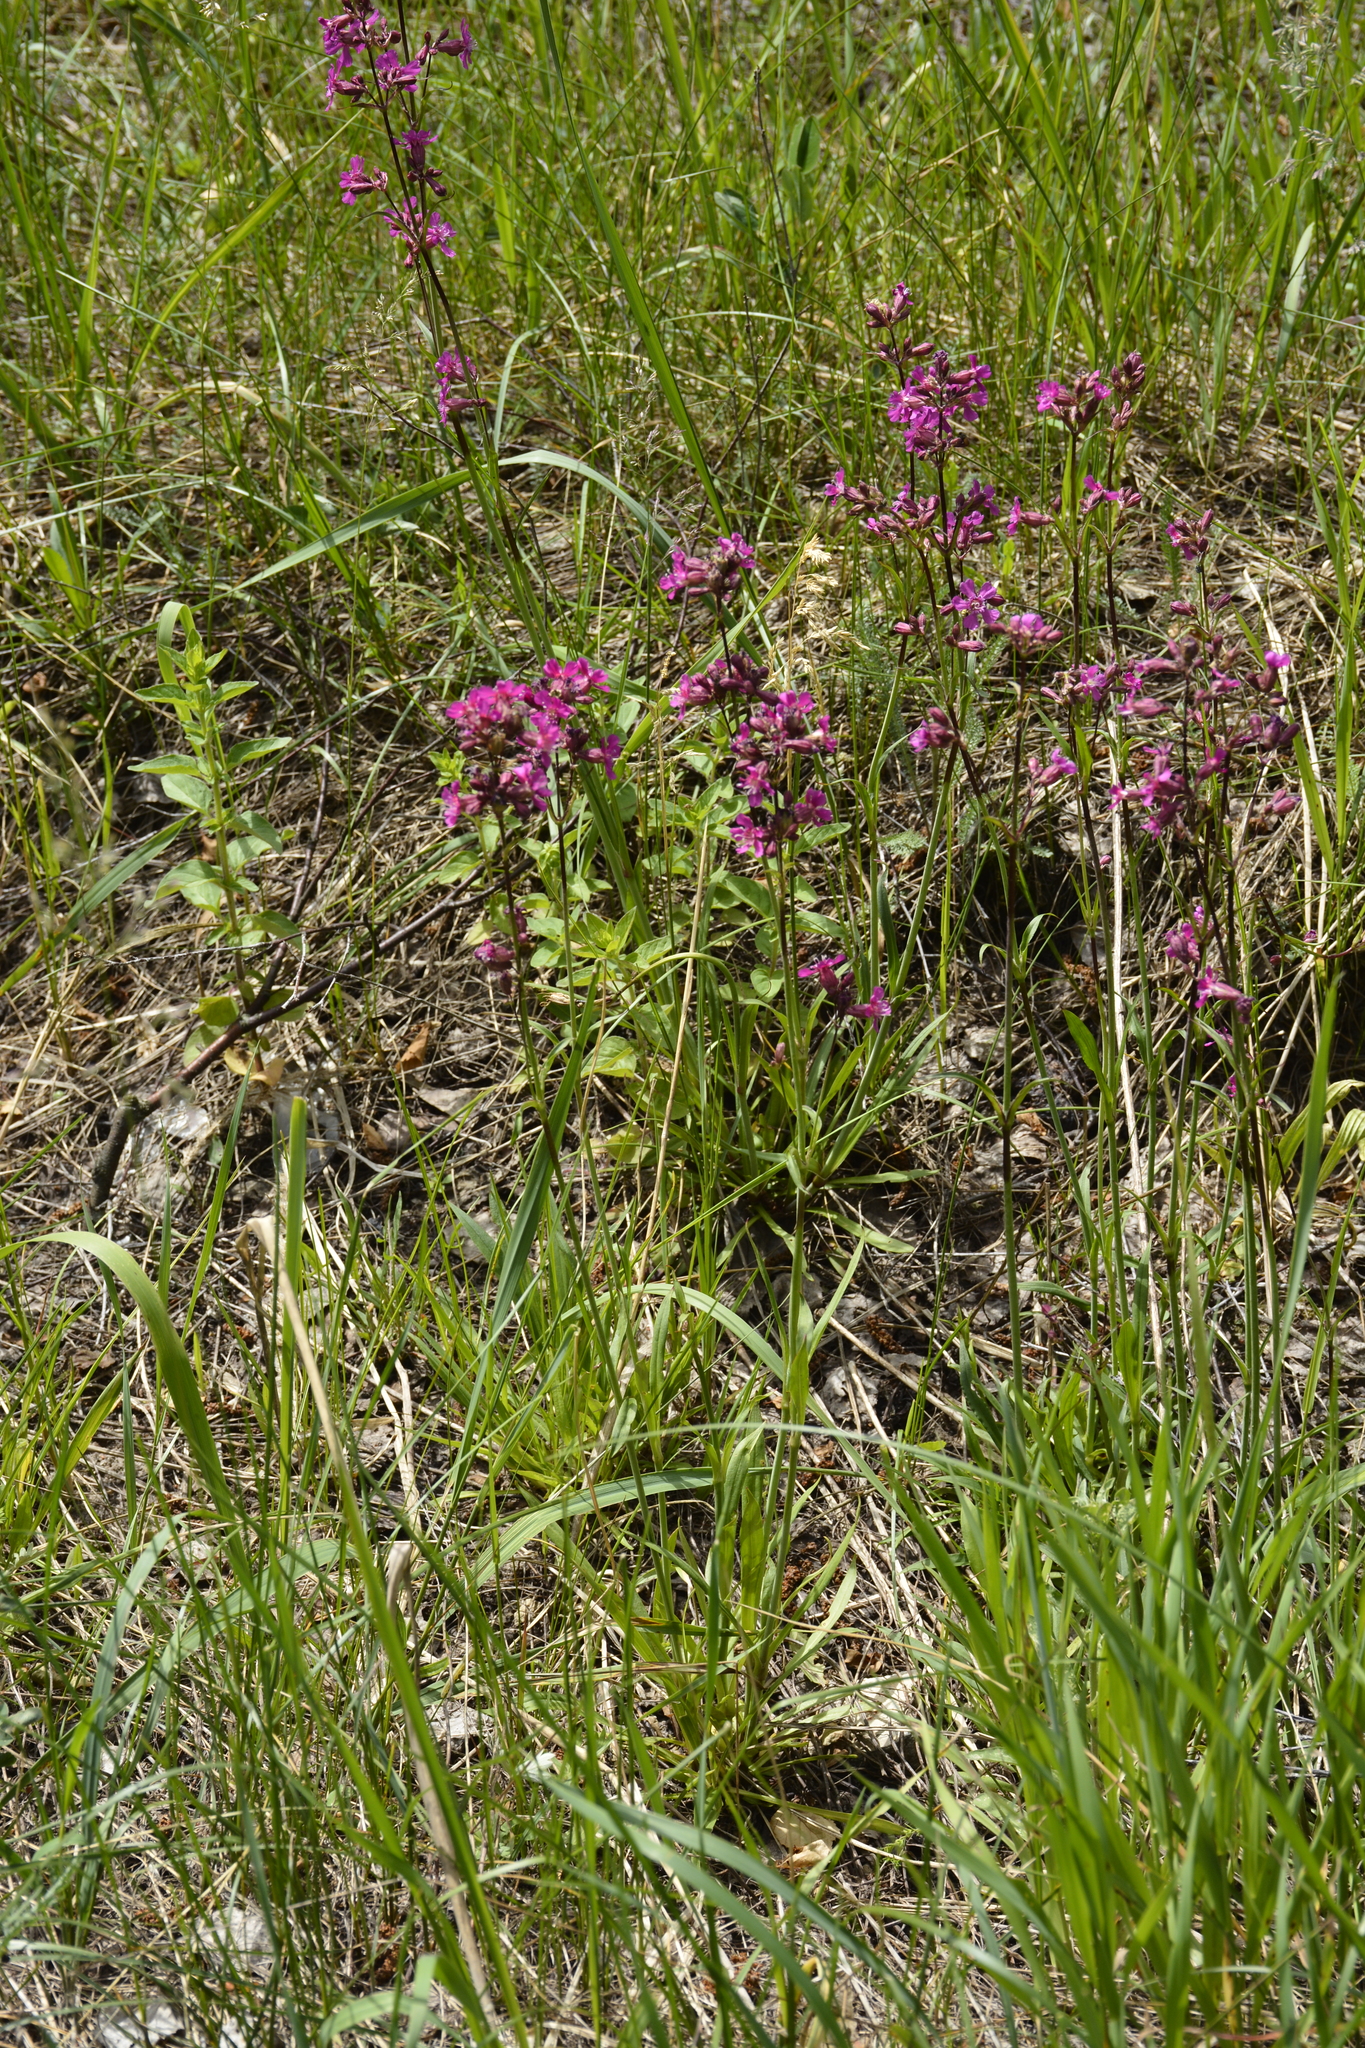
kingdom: Plantae
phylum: Tracheophyta
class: Magnoliopsida
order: Caryophyllales
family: Caryophyllaceae
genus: Viscaria
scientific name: Viscaria vulgaris
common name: Clammy campion
